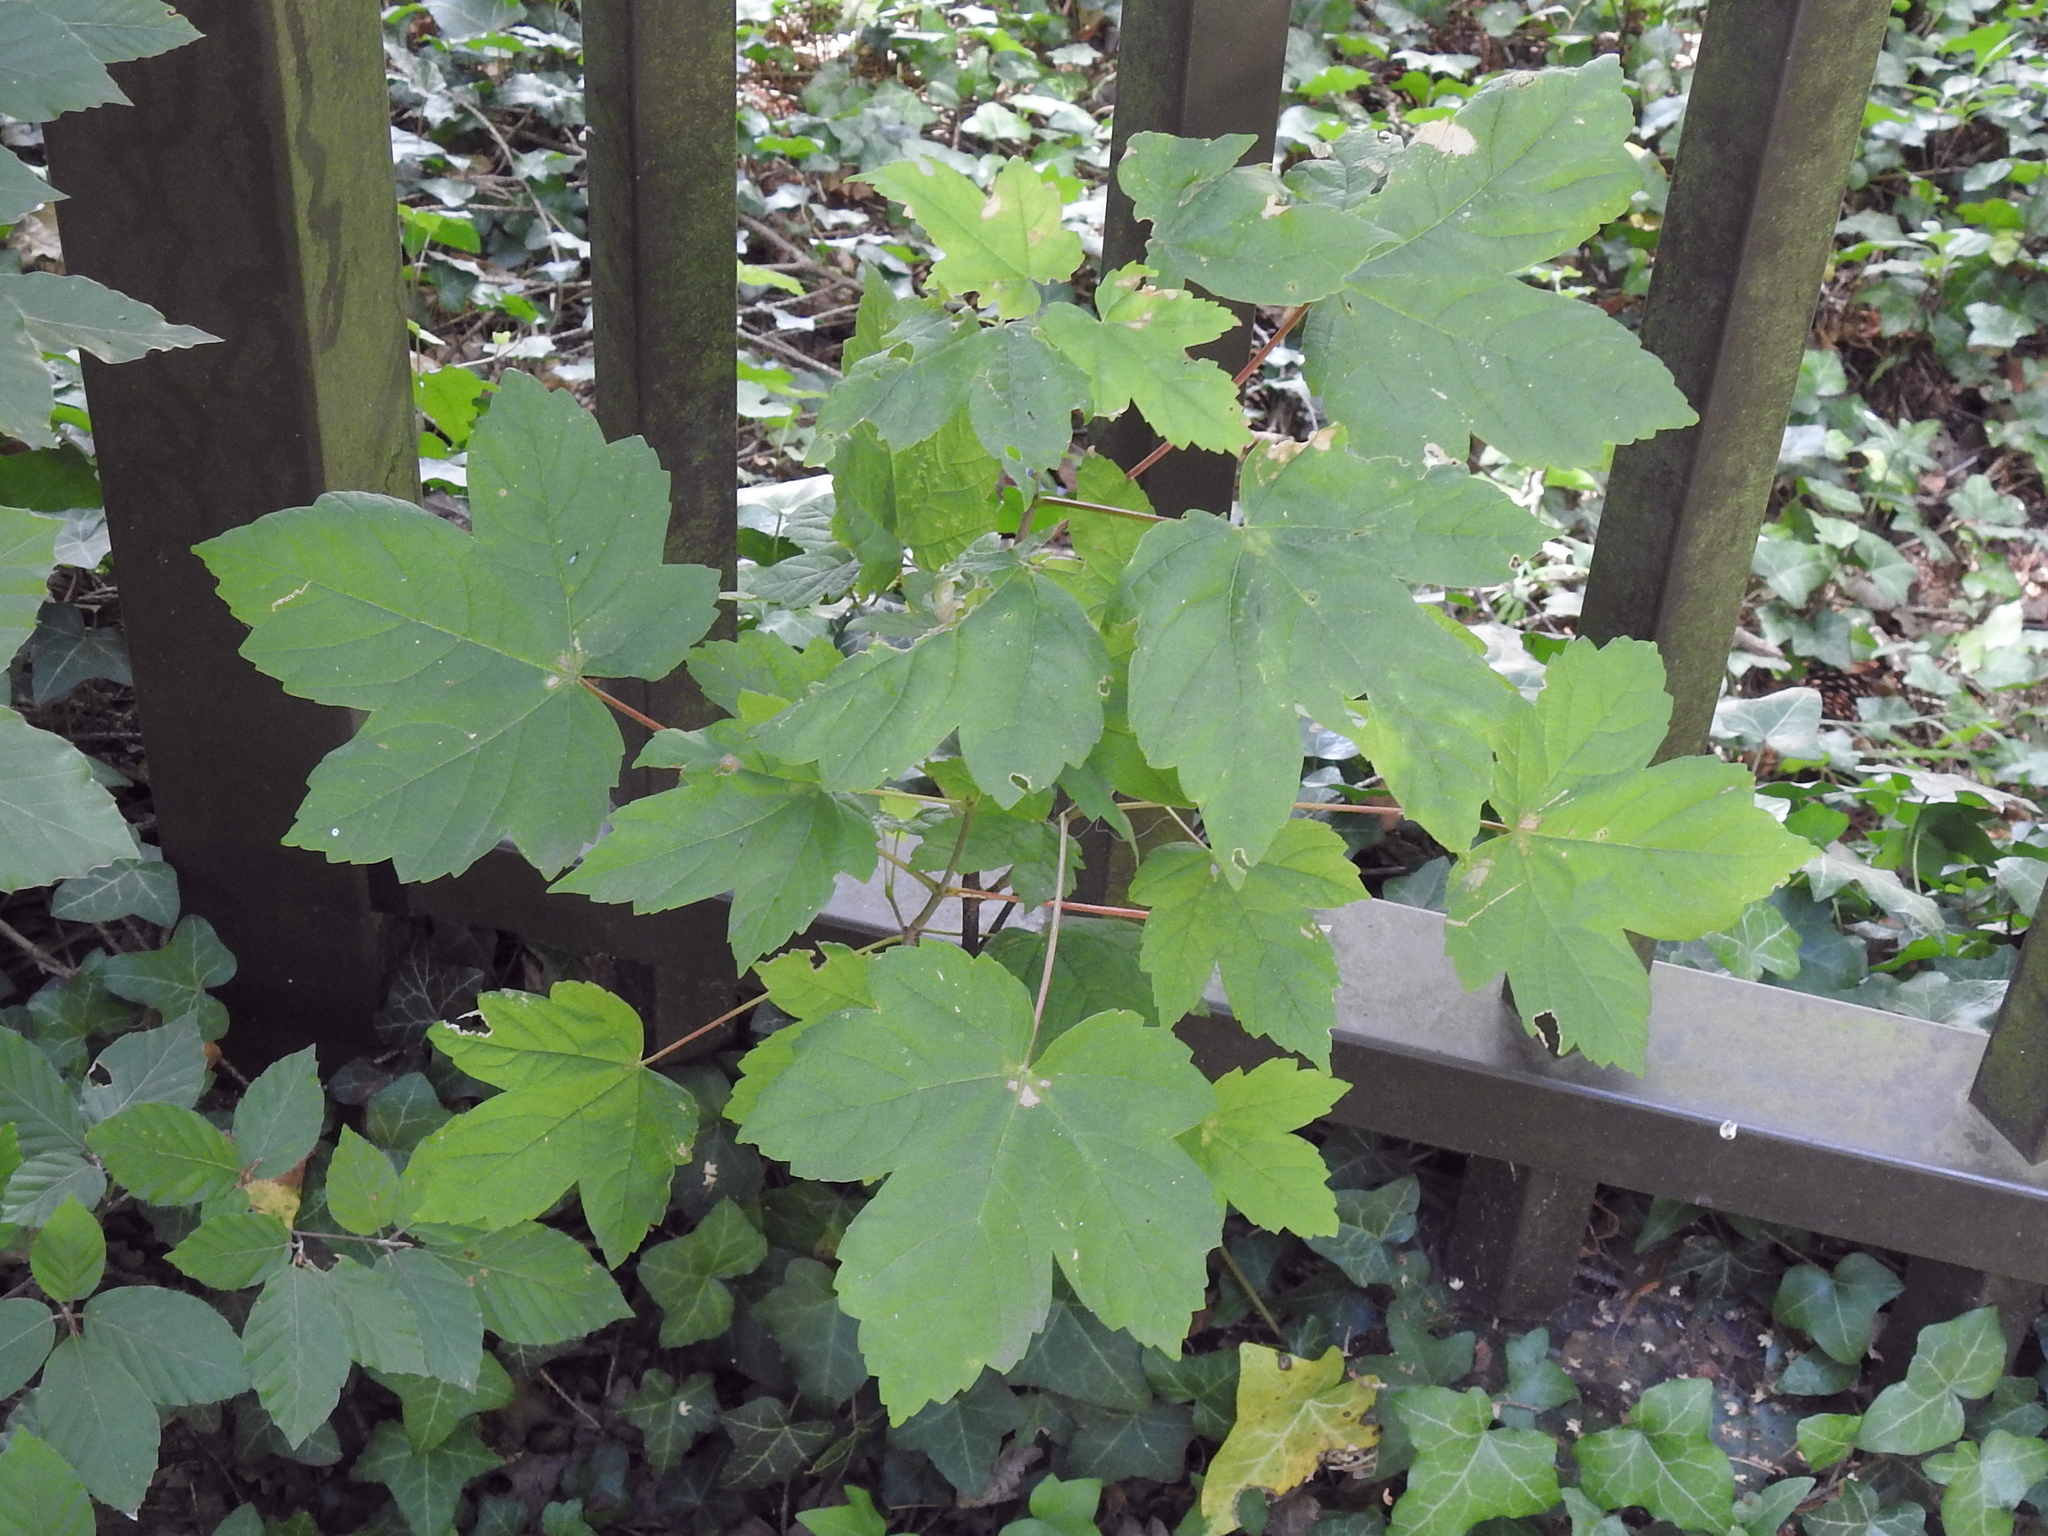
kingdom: Plantae
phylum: Tracheophyta
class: Magnoliopsida
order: Sapindales
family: Sapindaceae
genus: Acer
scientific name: Acer pseudoplatanus
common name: Sycamore
